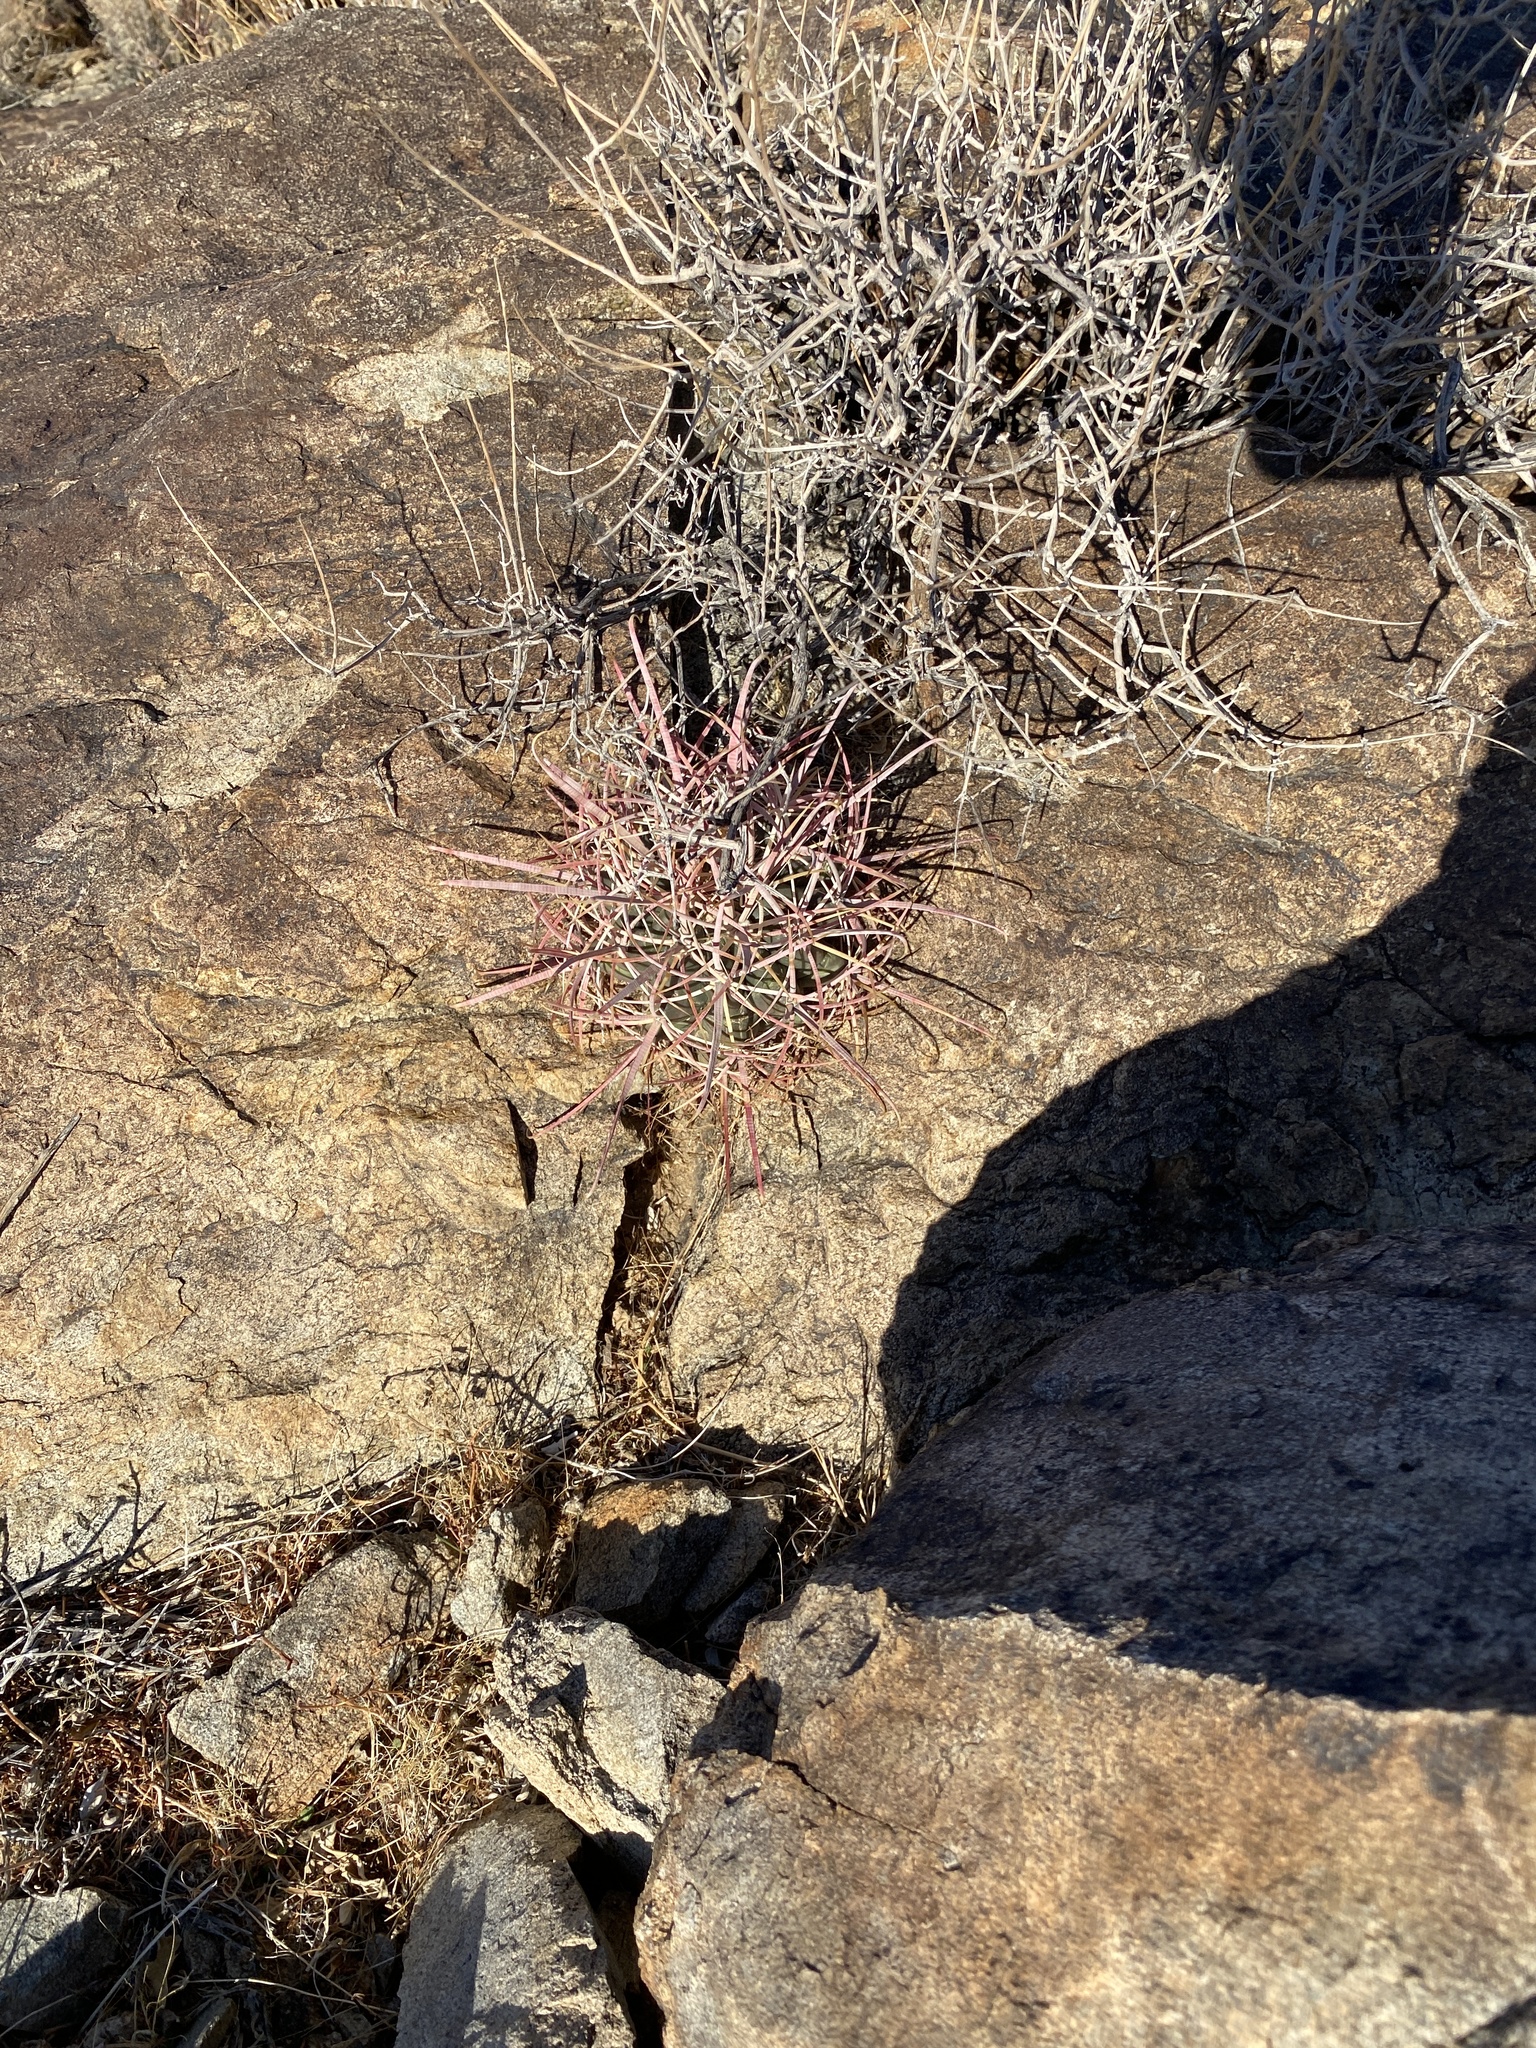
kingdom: Plantae
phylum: Tracheophyta
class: Magnoliopsida
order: Caryophyllales
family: Cactaceae
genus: Ferocactus
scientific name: Ferocactus cylindraceus
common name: California barrel cactus
